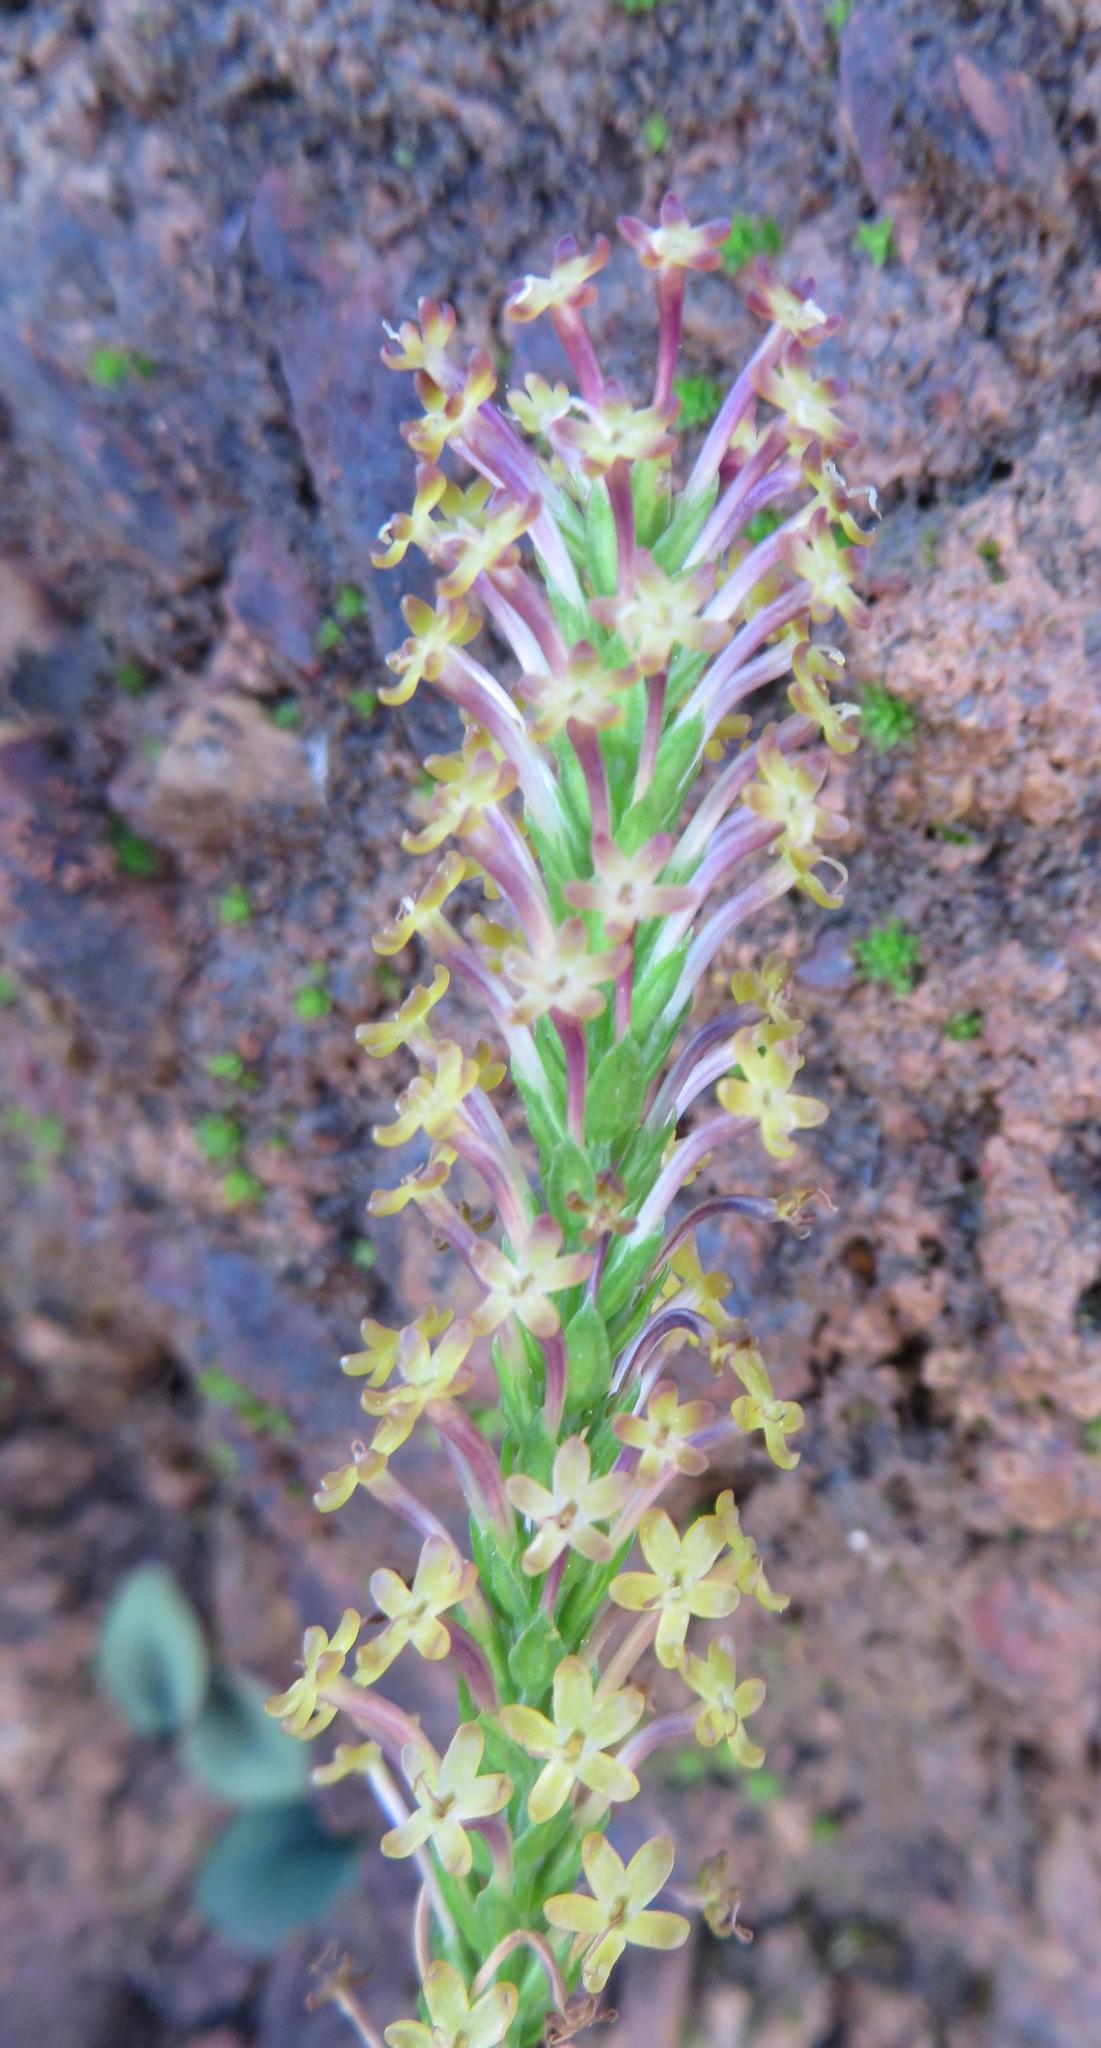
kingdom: Plantae
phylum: Tracheophyta
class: Magnoliopsida
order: Lamiales
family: Scrophulariaceae
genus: Microdon
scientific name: Microdon dubius
